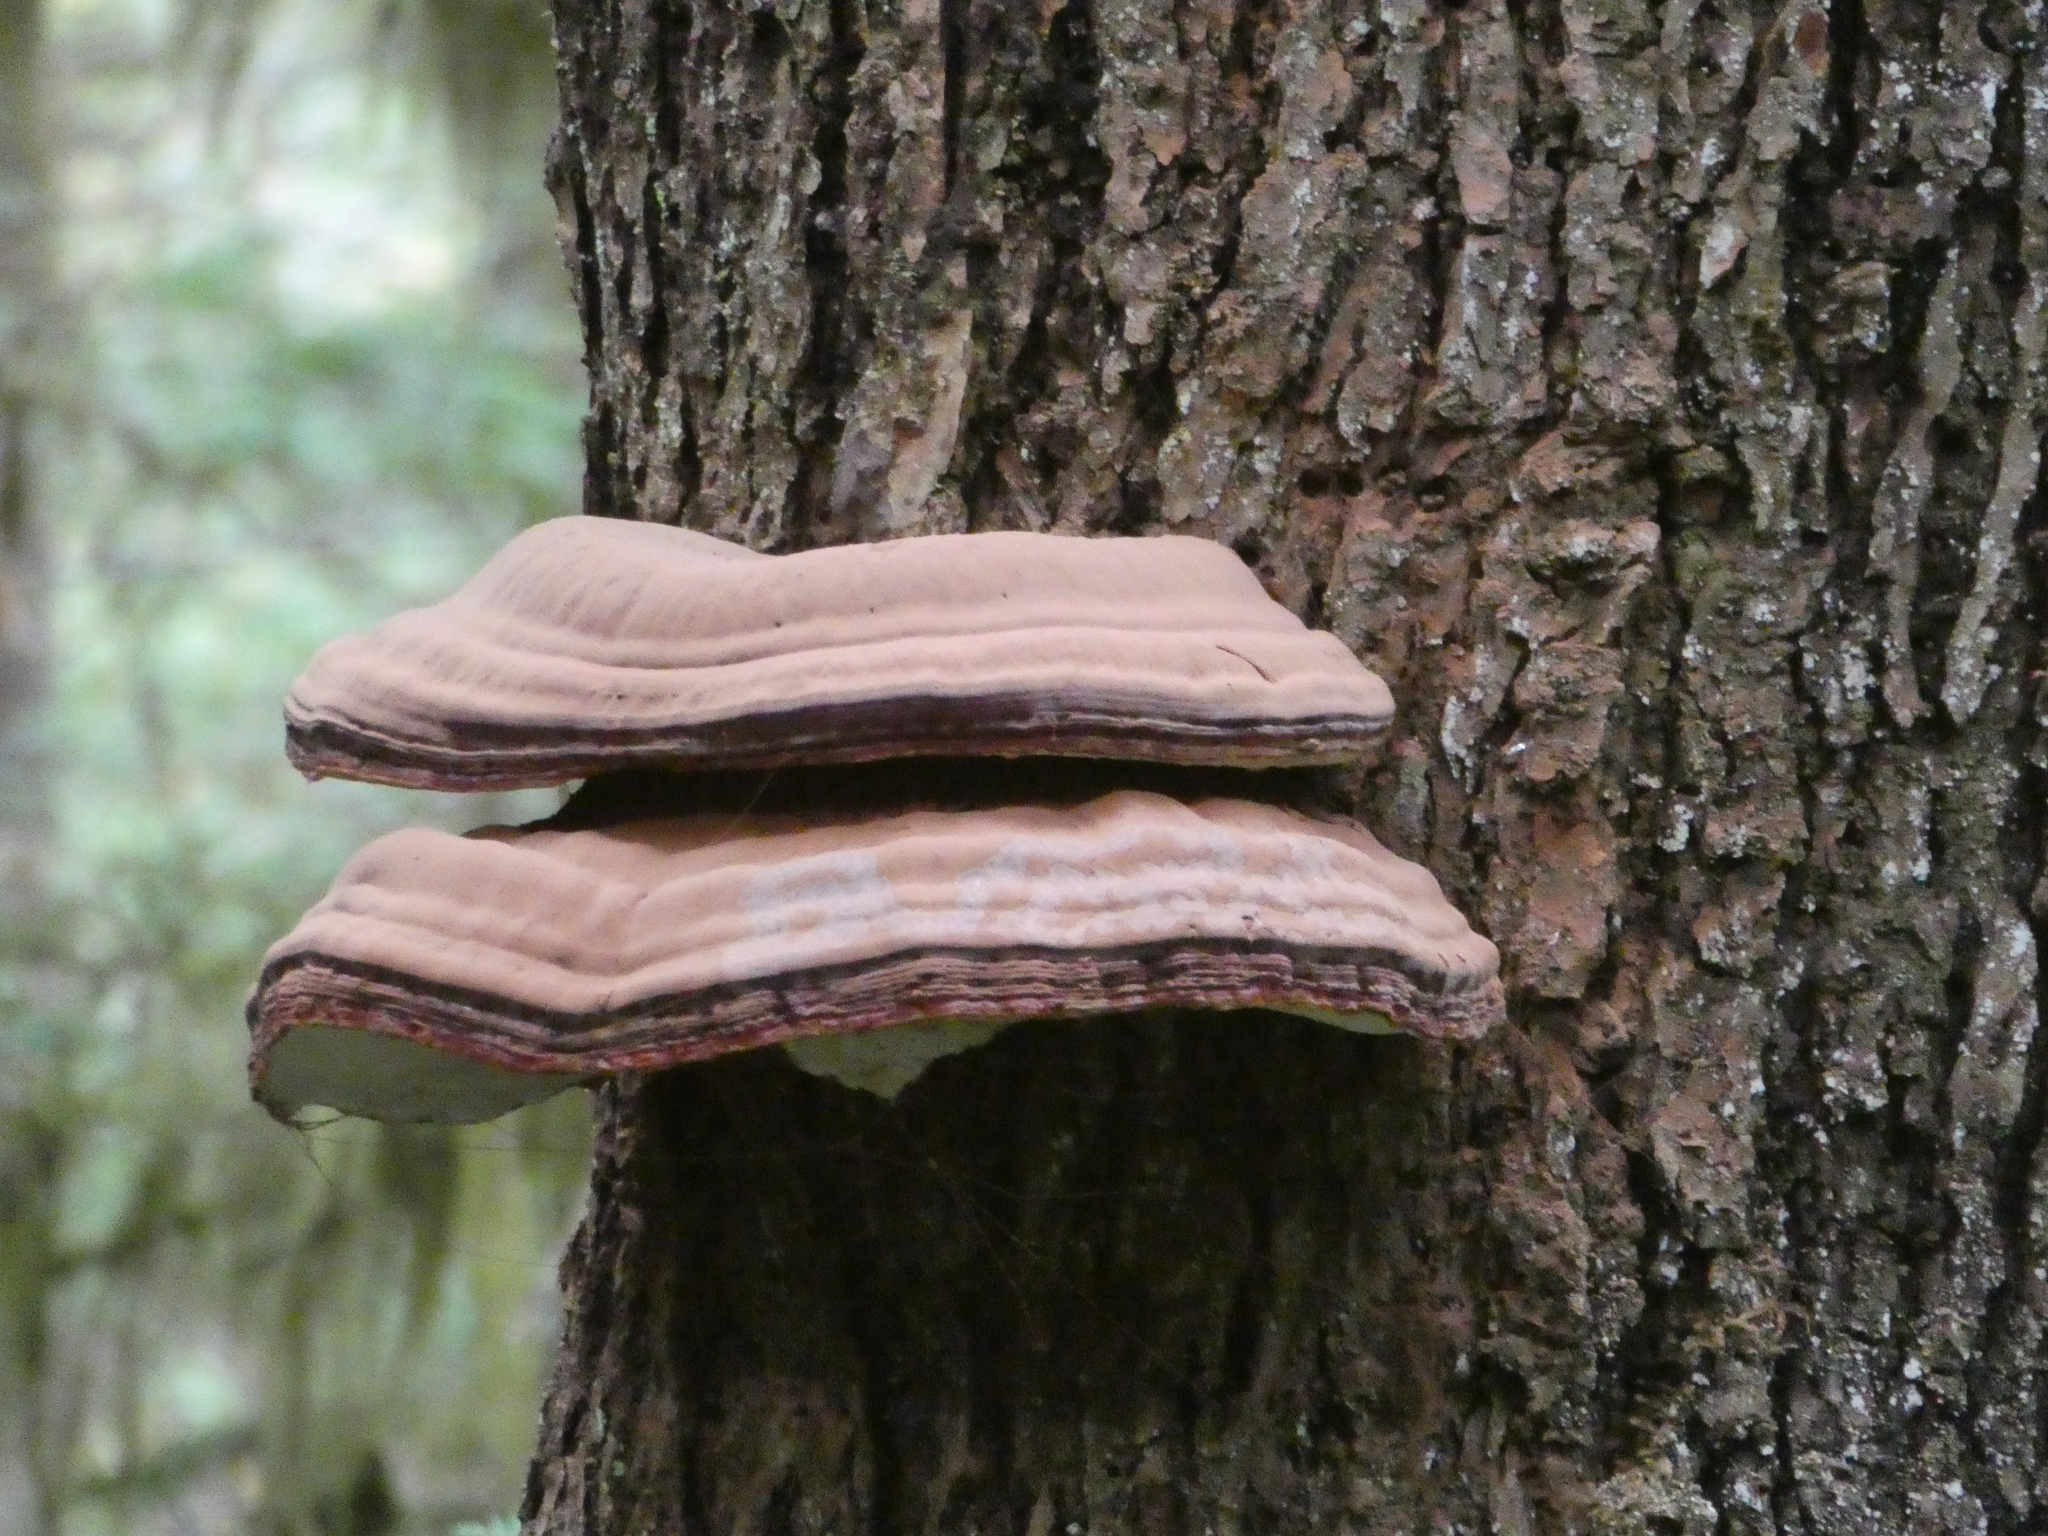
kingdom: Fungi
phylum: Basidiomycota
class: Agaricomycetes
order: Polyporales
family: Polyporaceae
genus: Ganoderma
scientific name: Ganoderma oregonense
